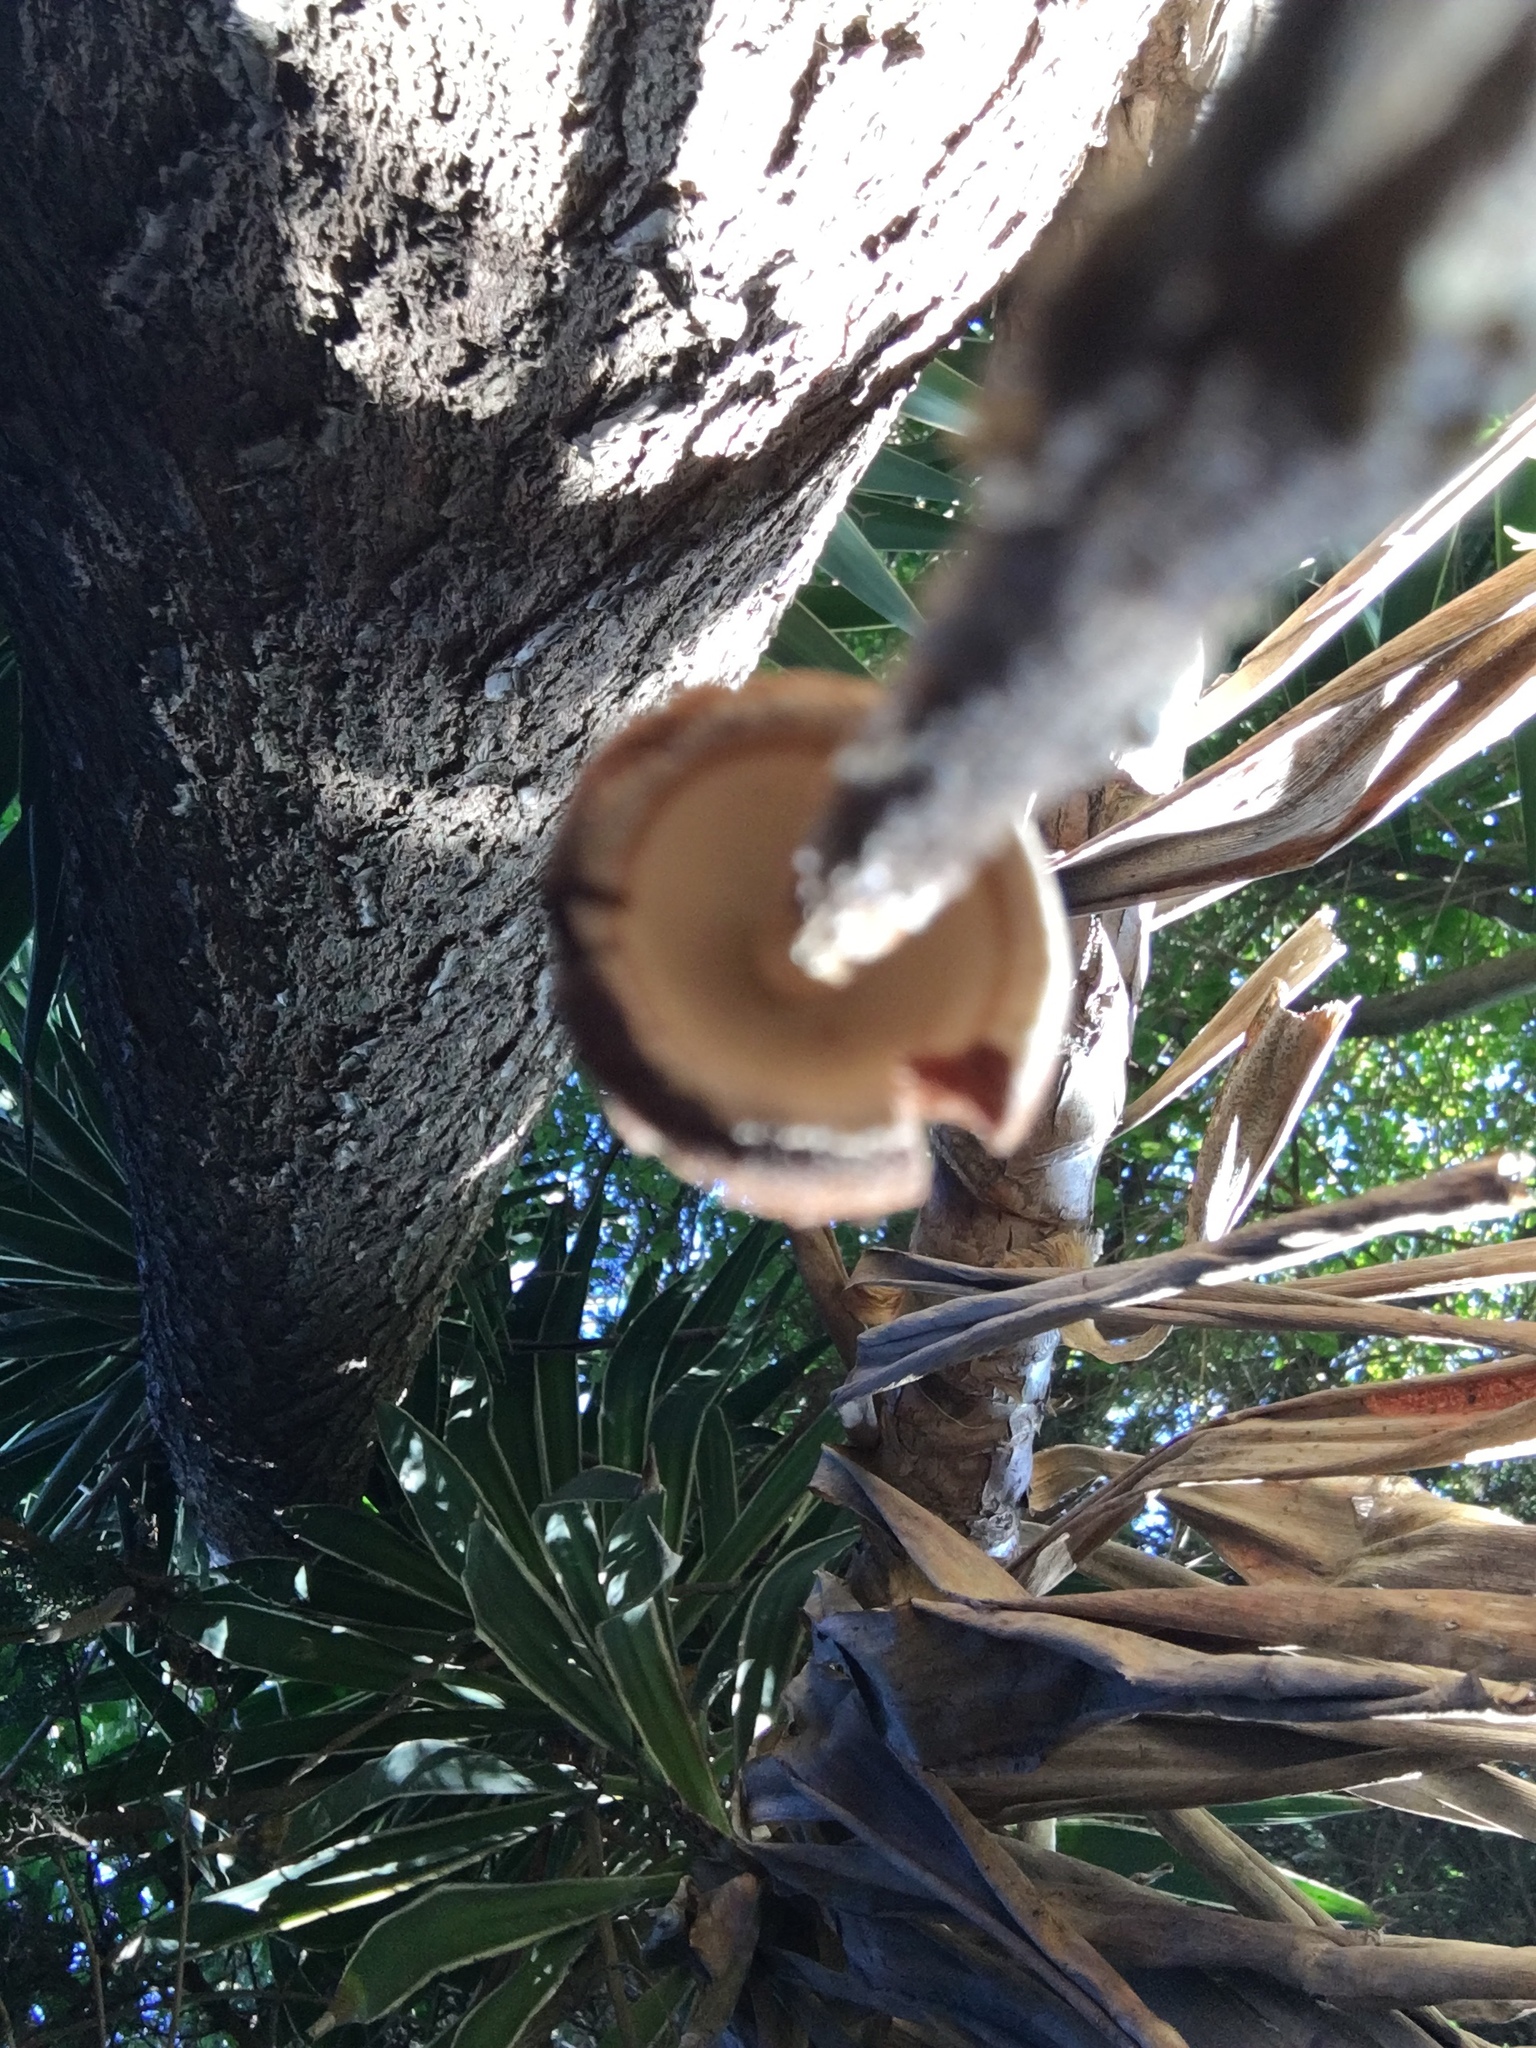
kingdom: Fungi
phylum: Basidiomycota
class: Agaricomycetes
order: Agaricales
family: Agaricaceae
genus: Battarrea
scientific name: Battarrea phalloides
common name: Sandy stiltball
